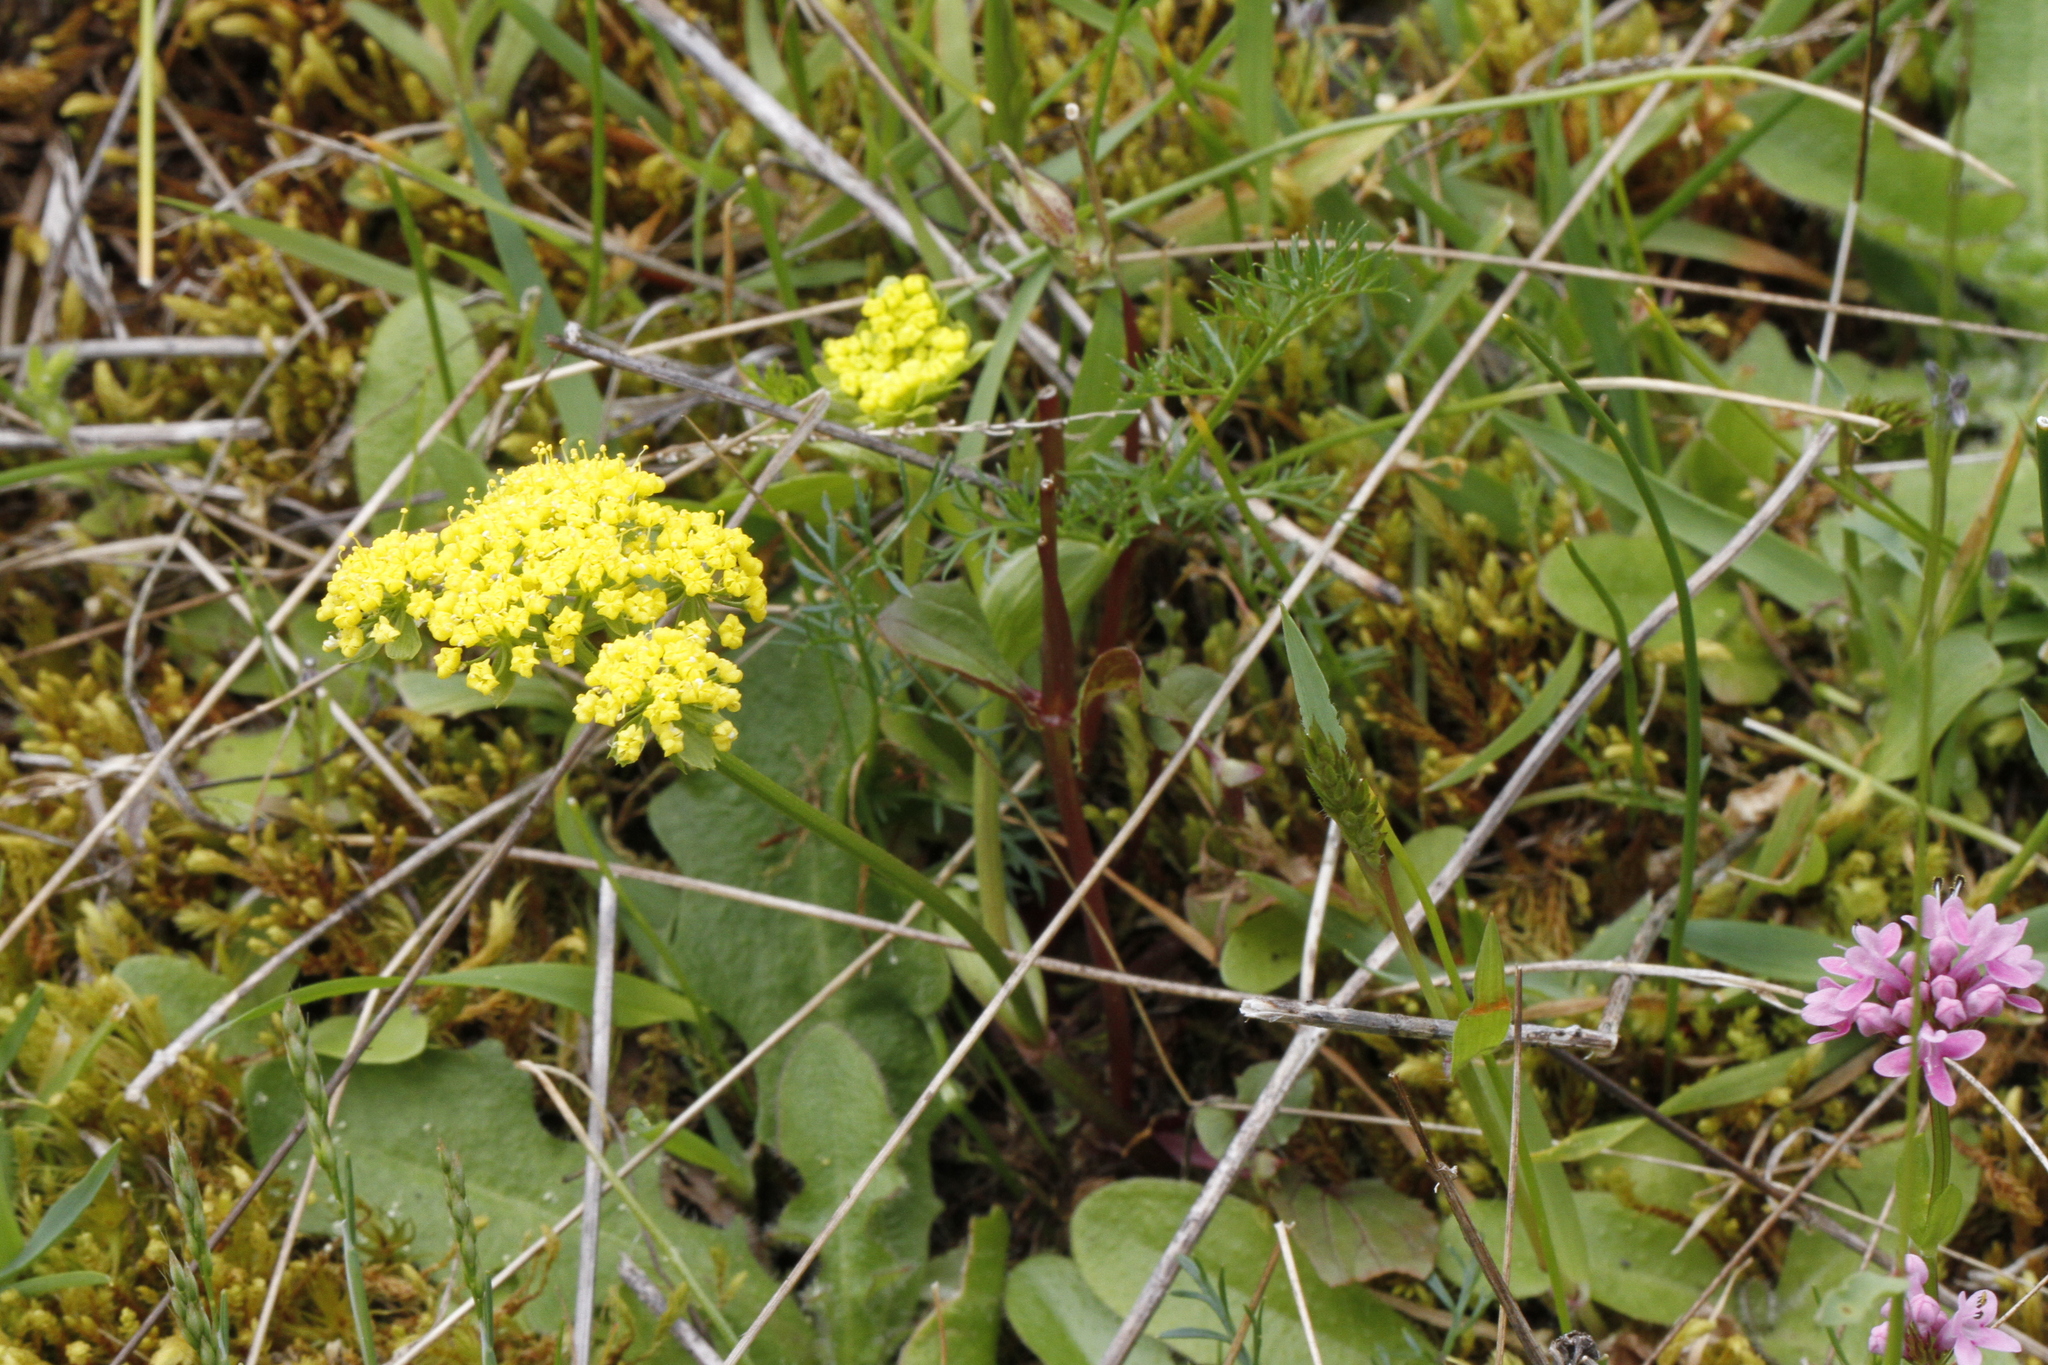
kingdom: Plantae
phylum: Tracheophyta
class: Magnoliopsida
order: Apiales
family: Apiaceae
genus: Lomatium
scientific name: Lomatium utriculatum
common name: Fine-leaf desert-parsley
